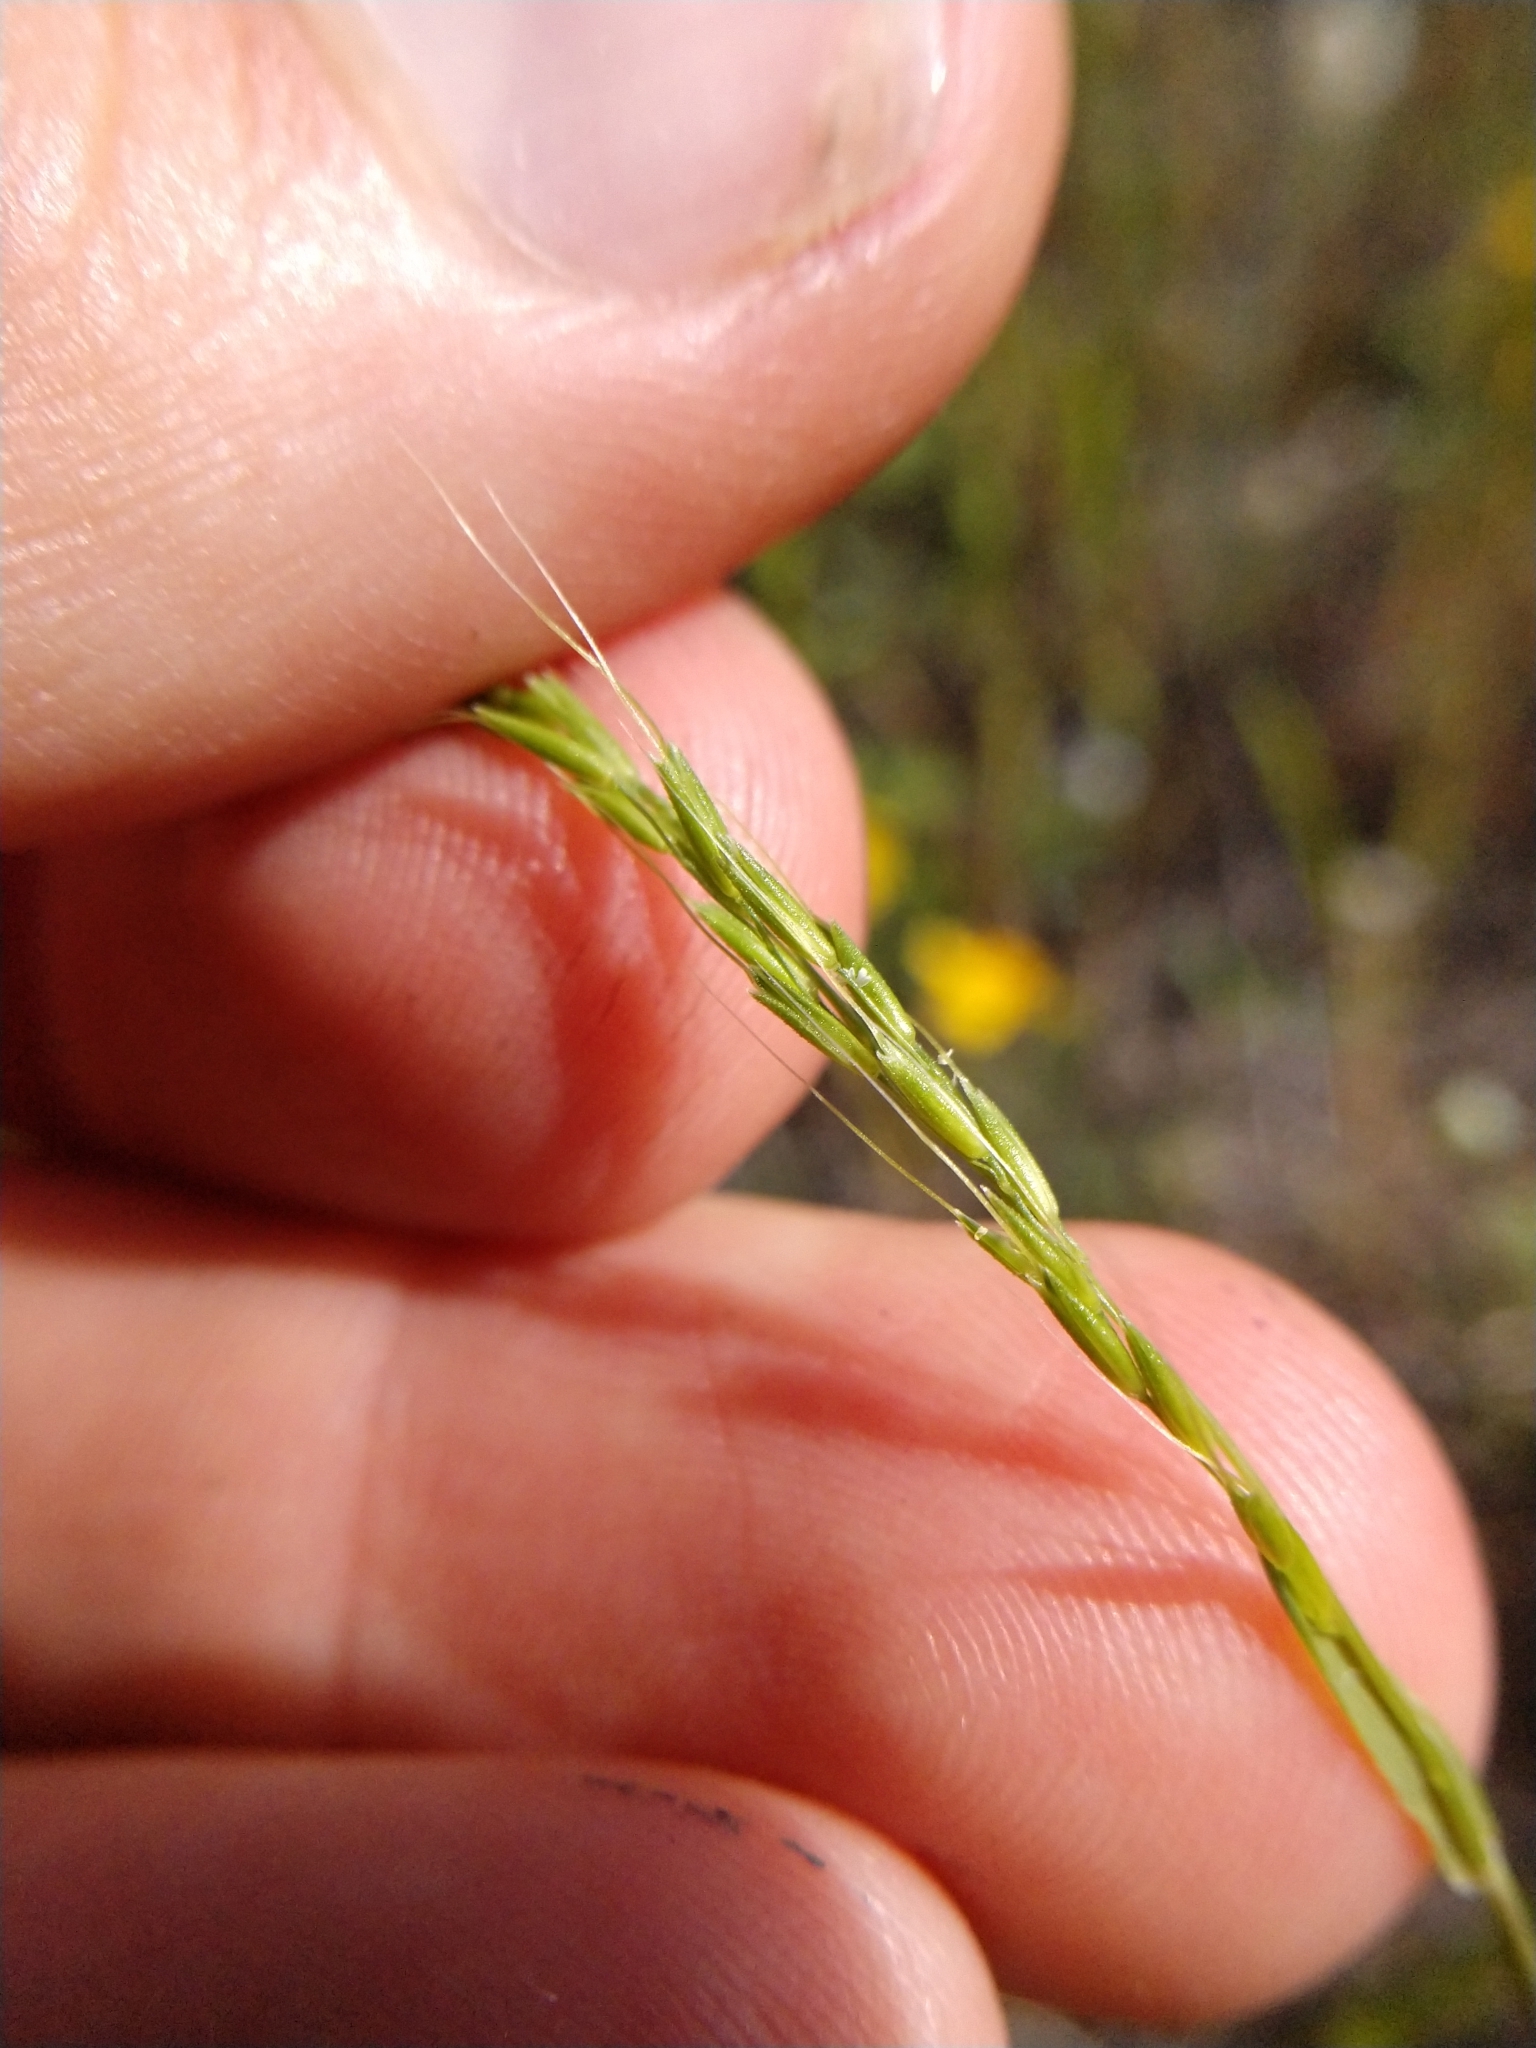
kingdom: Plantae
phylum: Tracheophyta
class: Liliopsida
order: Poales
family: Poaceae
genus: Limnodea
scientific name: Limnodea arkansana
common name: Ozark-grass
